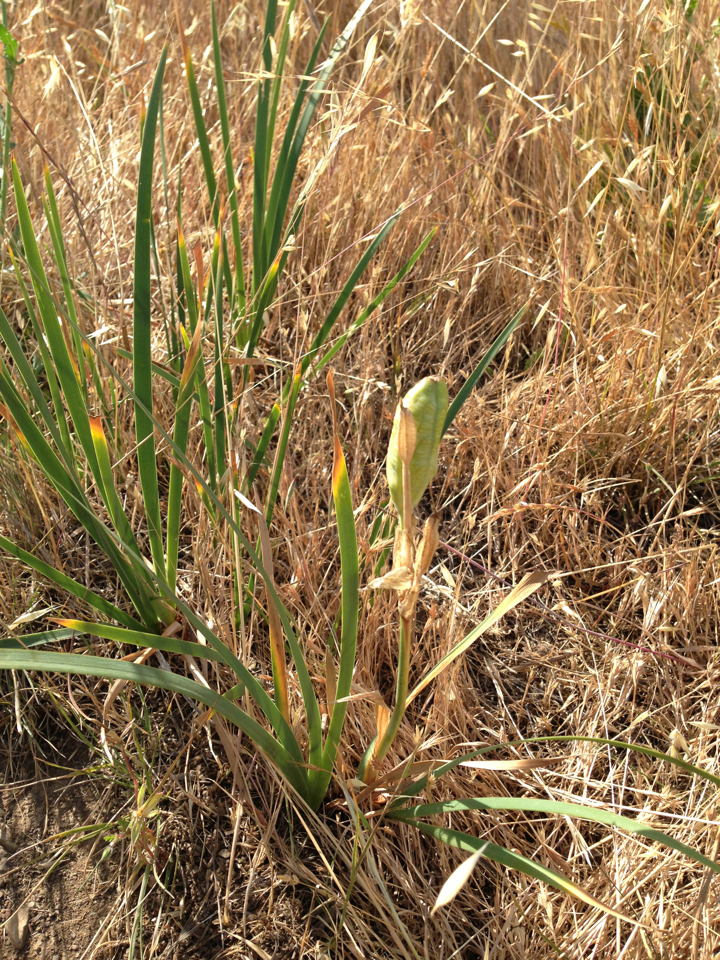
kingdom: Plantae
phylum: Tracheophyta
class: Liliopsida
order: Asparagales
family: Iridaceae
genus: Iris
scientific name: Iris longipetala
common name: Long-petal iris
